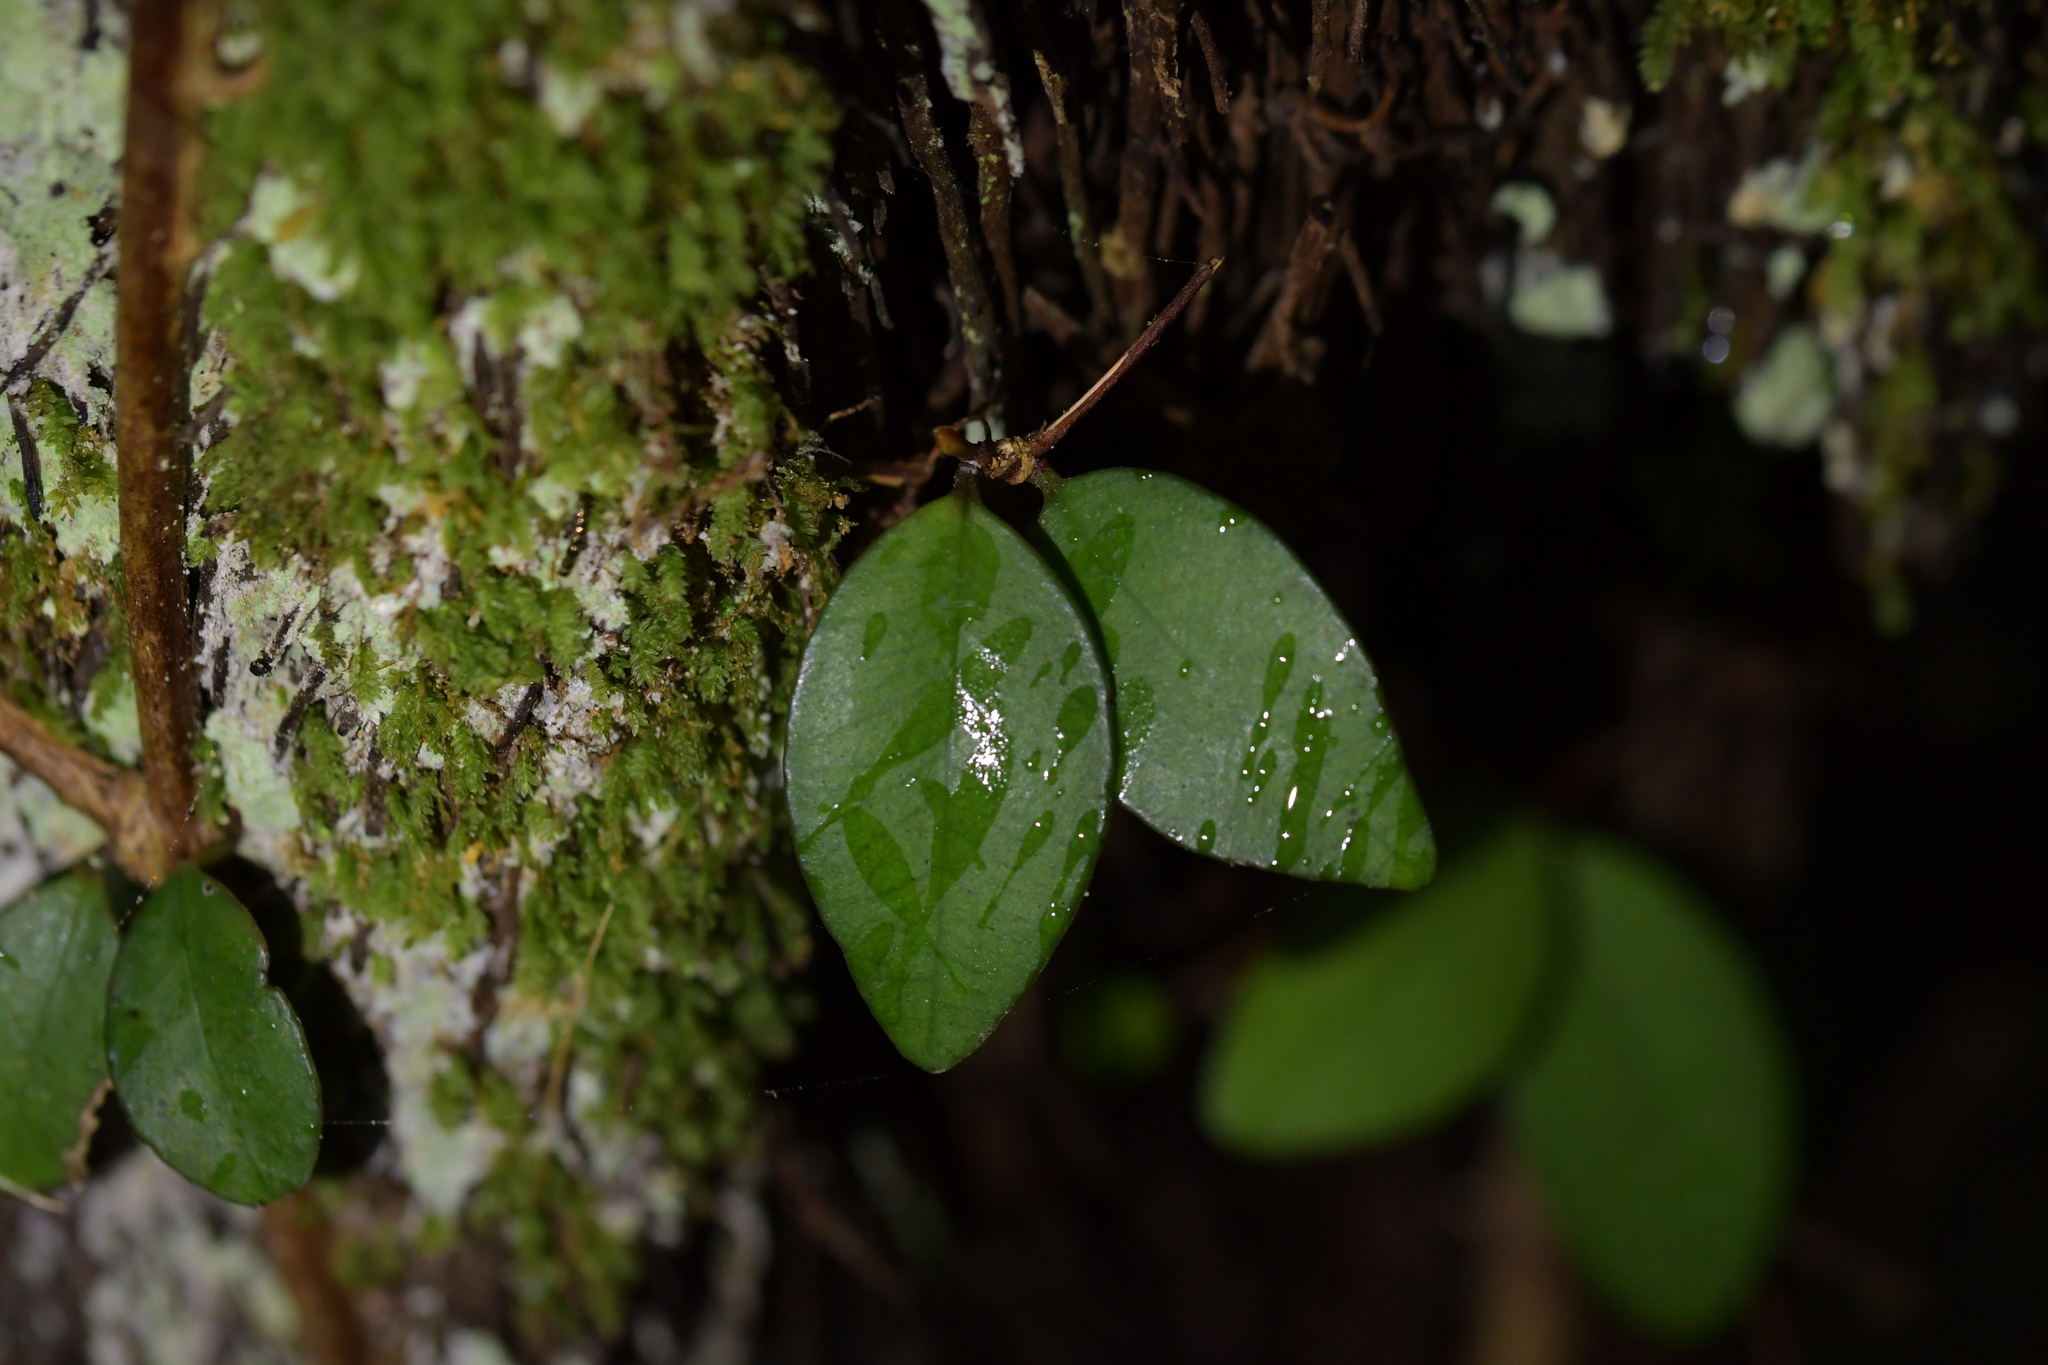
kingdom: Plantae
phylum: Tracheophyta
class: Magnoliopsida
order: Myrtales
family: Myrtaceae
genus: Metrosideros
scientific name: Metrosideros fulgens
